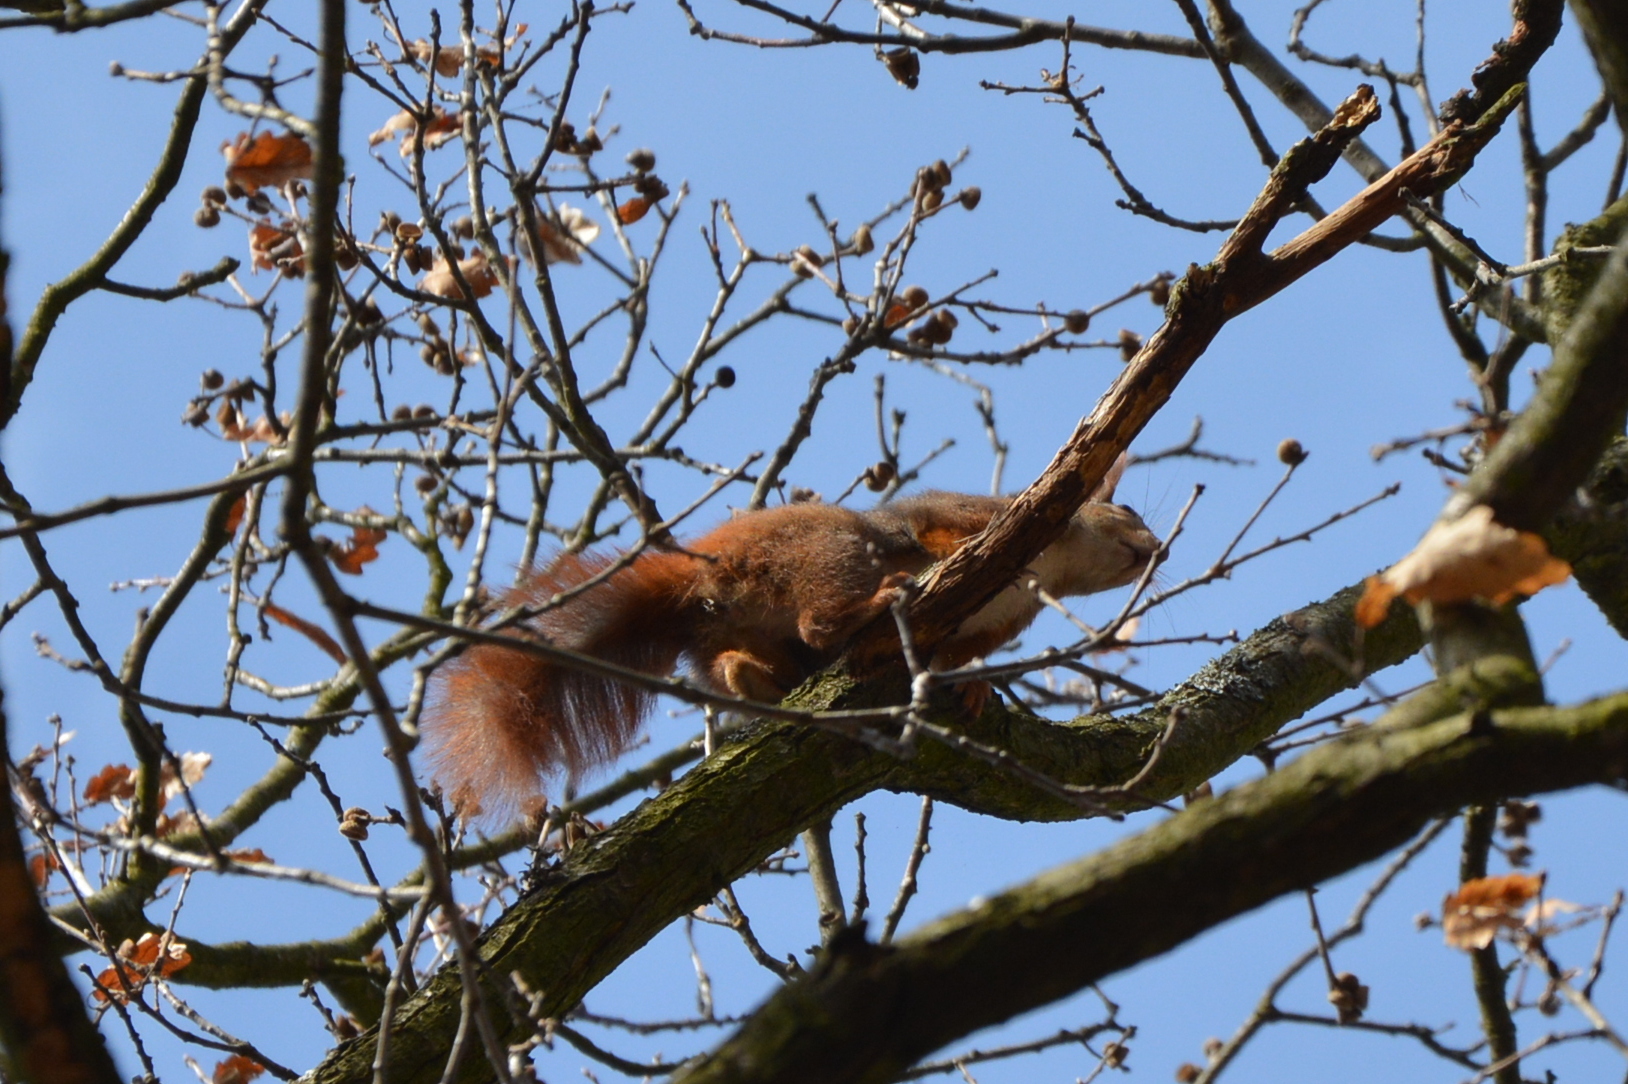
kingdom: Animalia
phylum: Chordata
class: Mammalia
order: Rodentia
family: Sciuridae
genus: Sciurus
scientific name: Sciurus vulgaris
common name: Eurasian red squirrel
